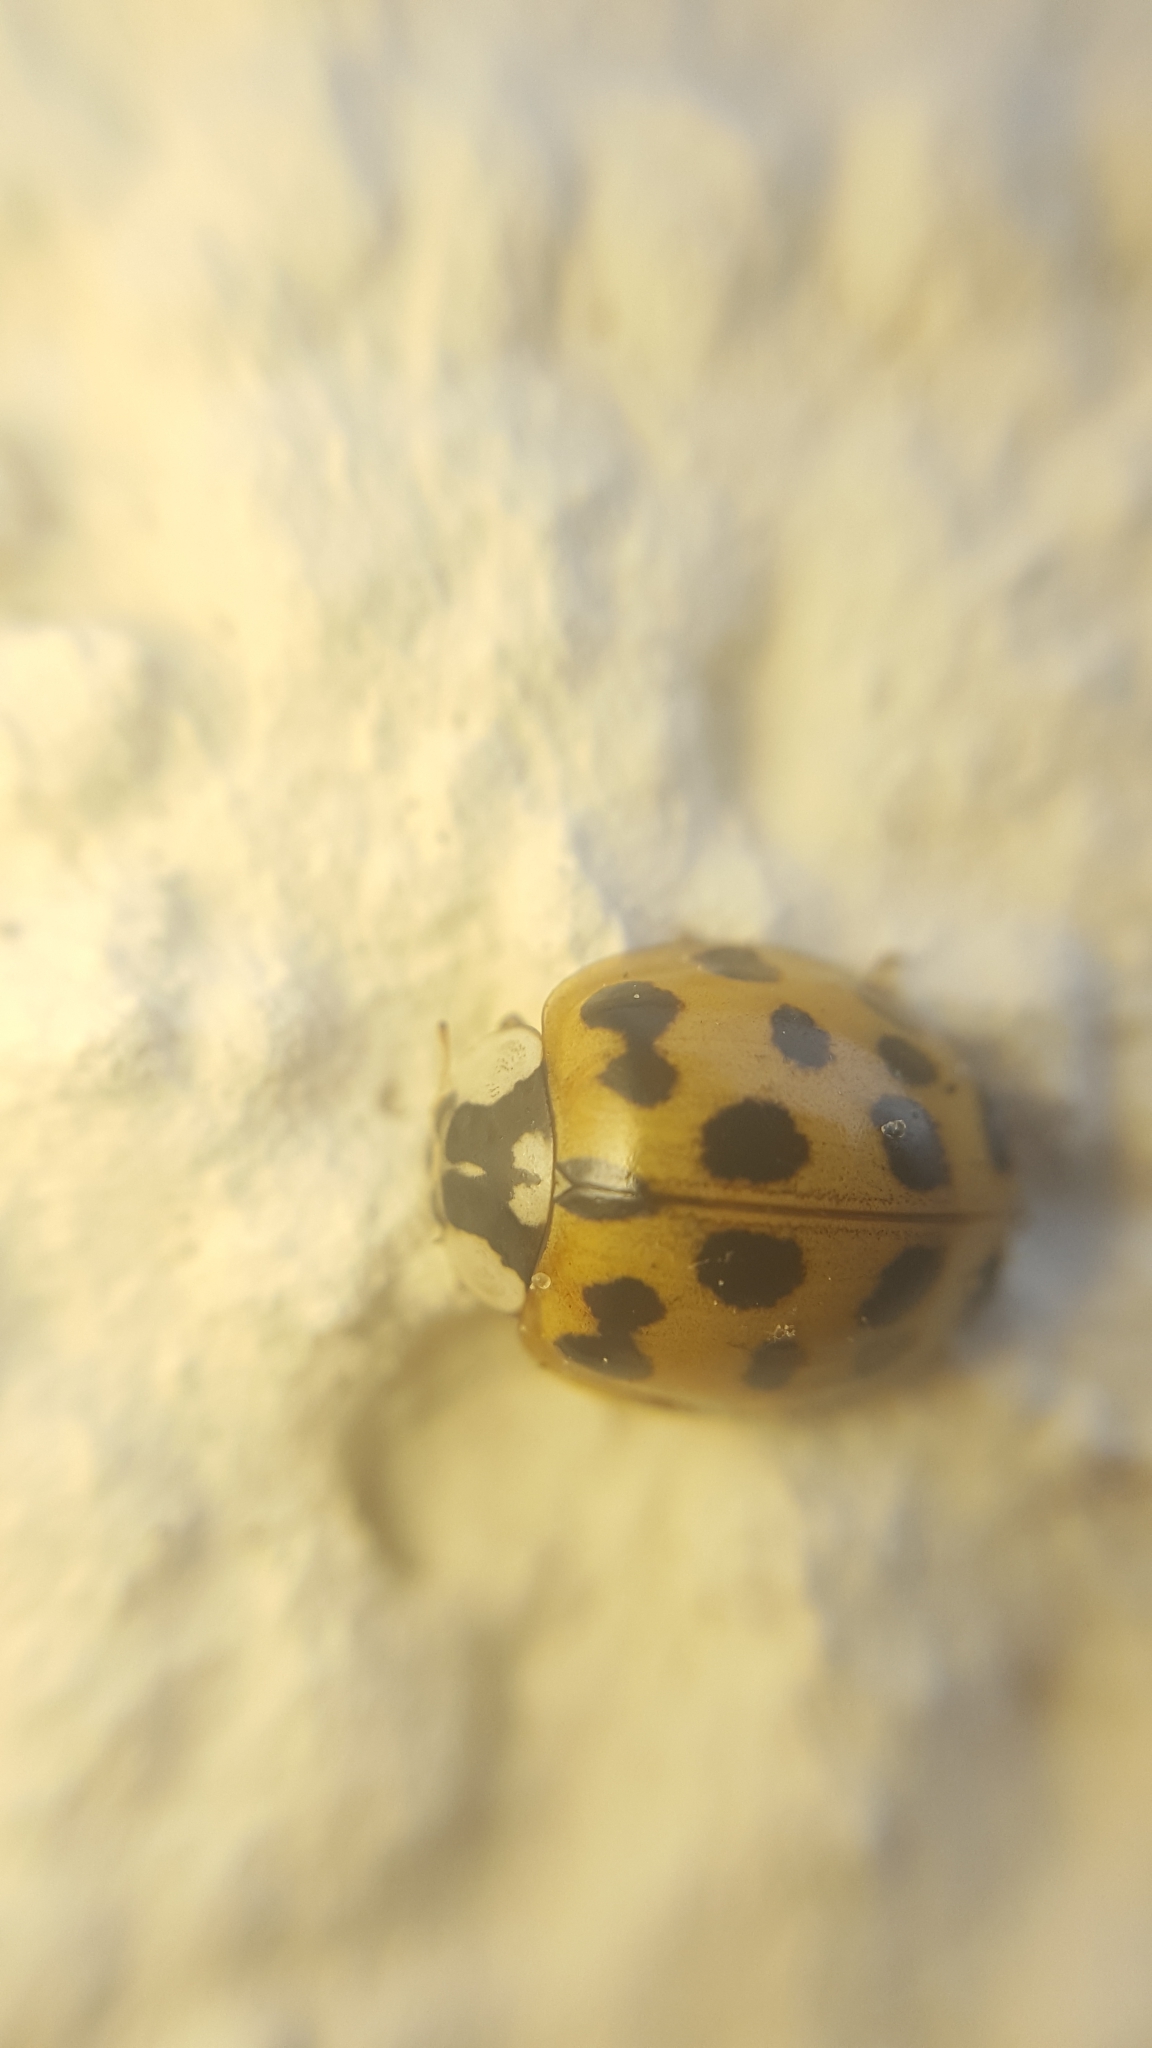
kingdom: Animalia
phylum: Arthropoda
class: Insecta
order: Coleoptera
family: Coccinellidae
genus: Harmonia
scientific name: Harmonia axyridis
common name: Harlequin ladybird
